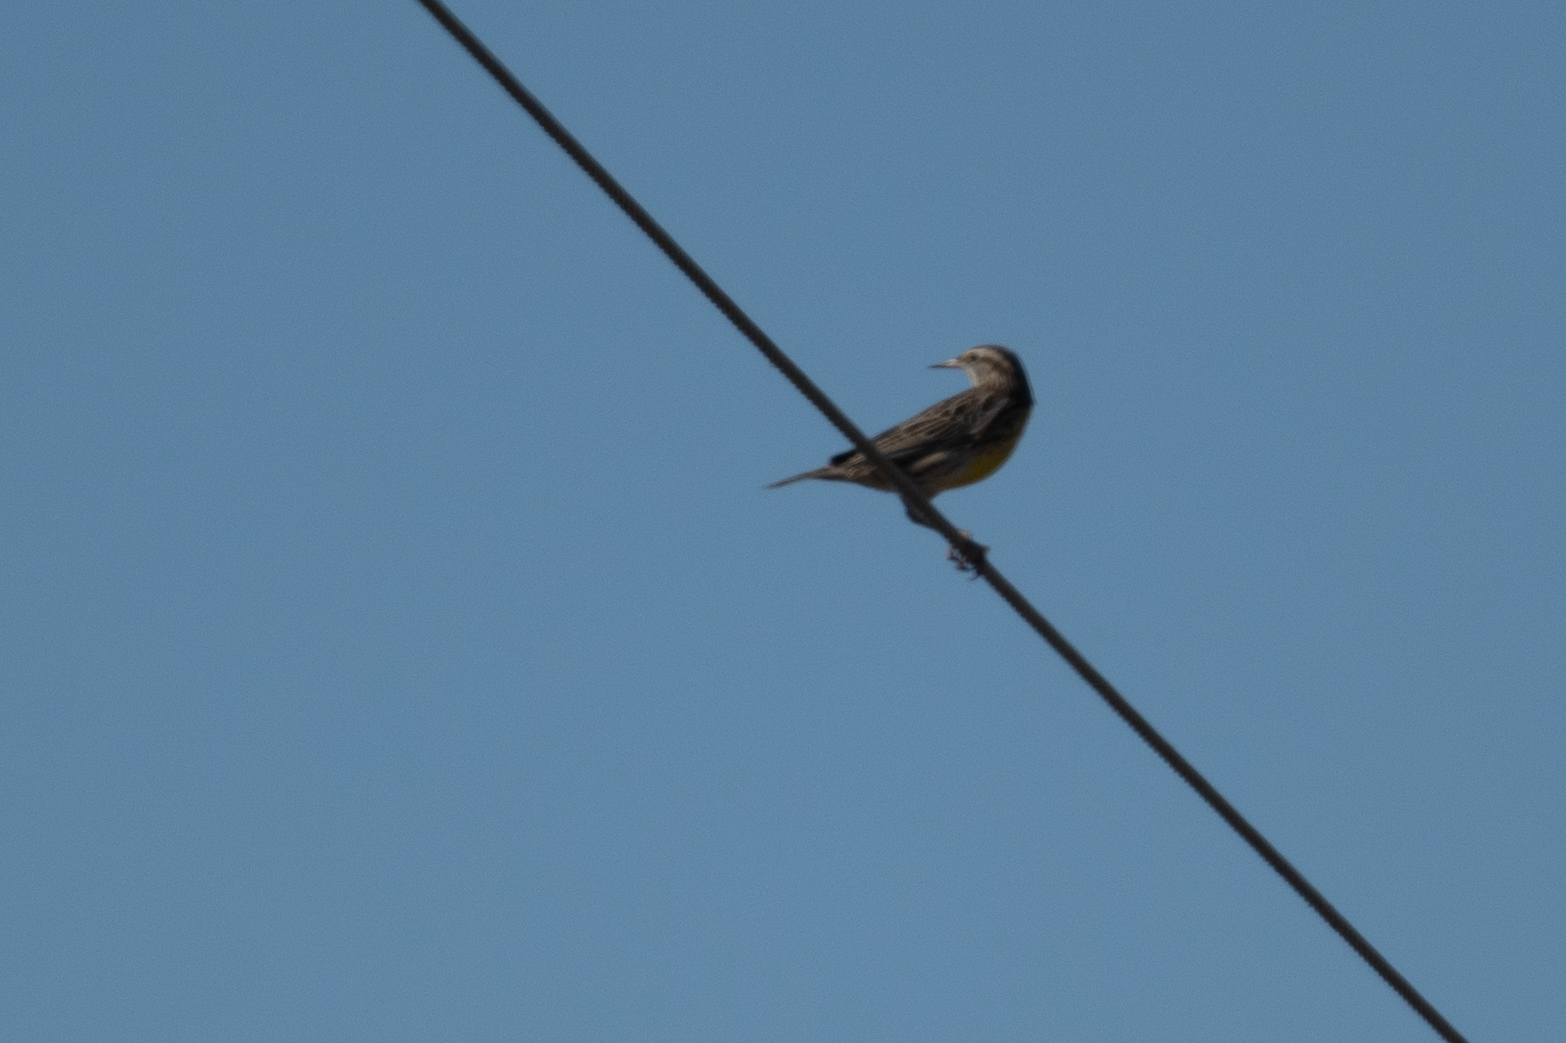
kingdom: Animalia
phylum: Chordata
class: Aves
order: Passeriformes
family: Icteridae
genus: Sturnella
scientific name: Sturnella neglecta
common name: Western meadowlark
